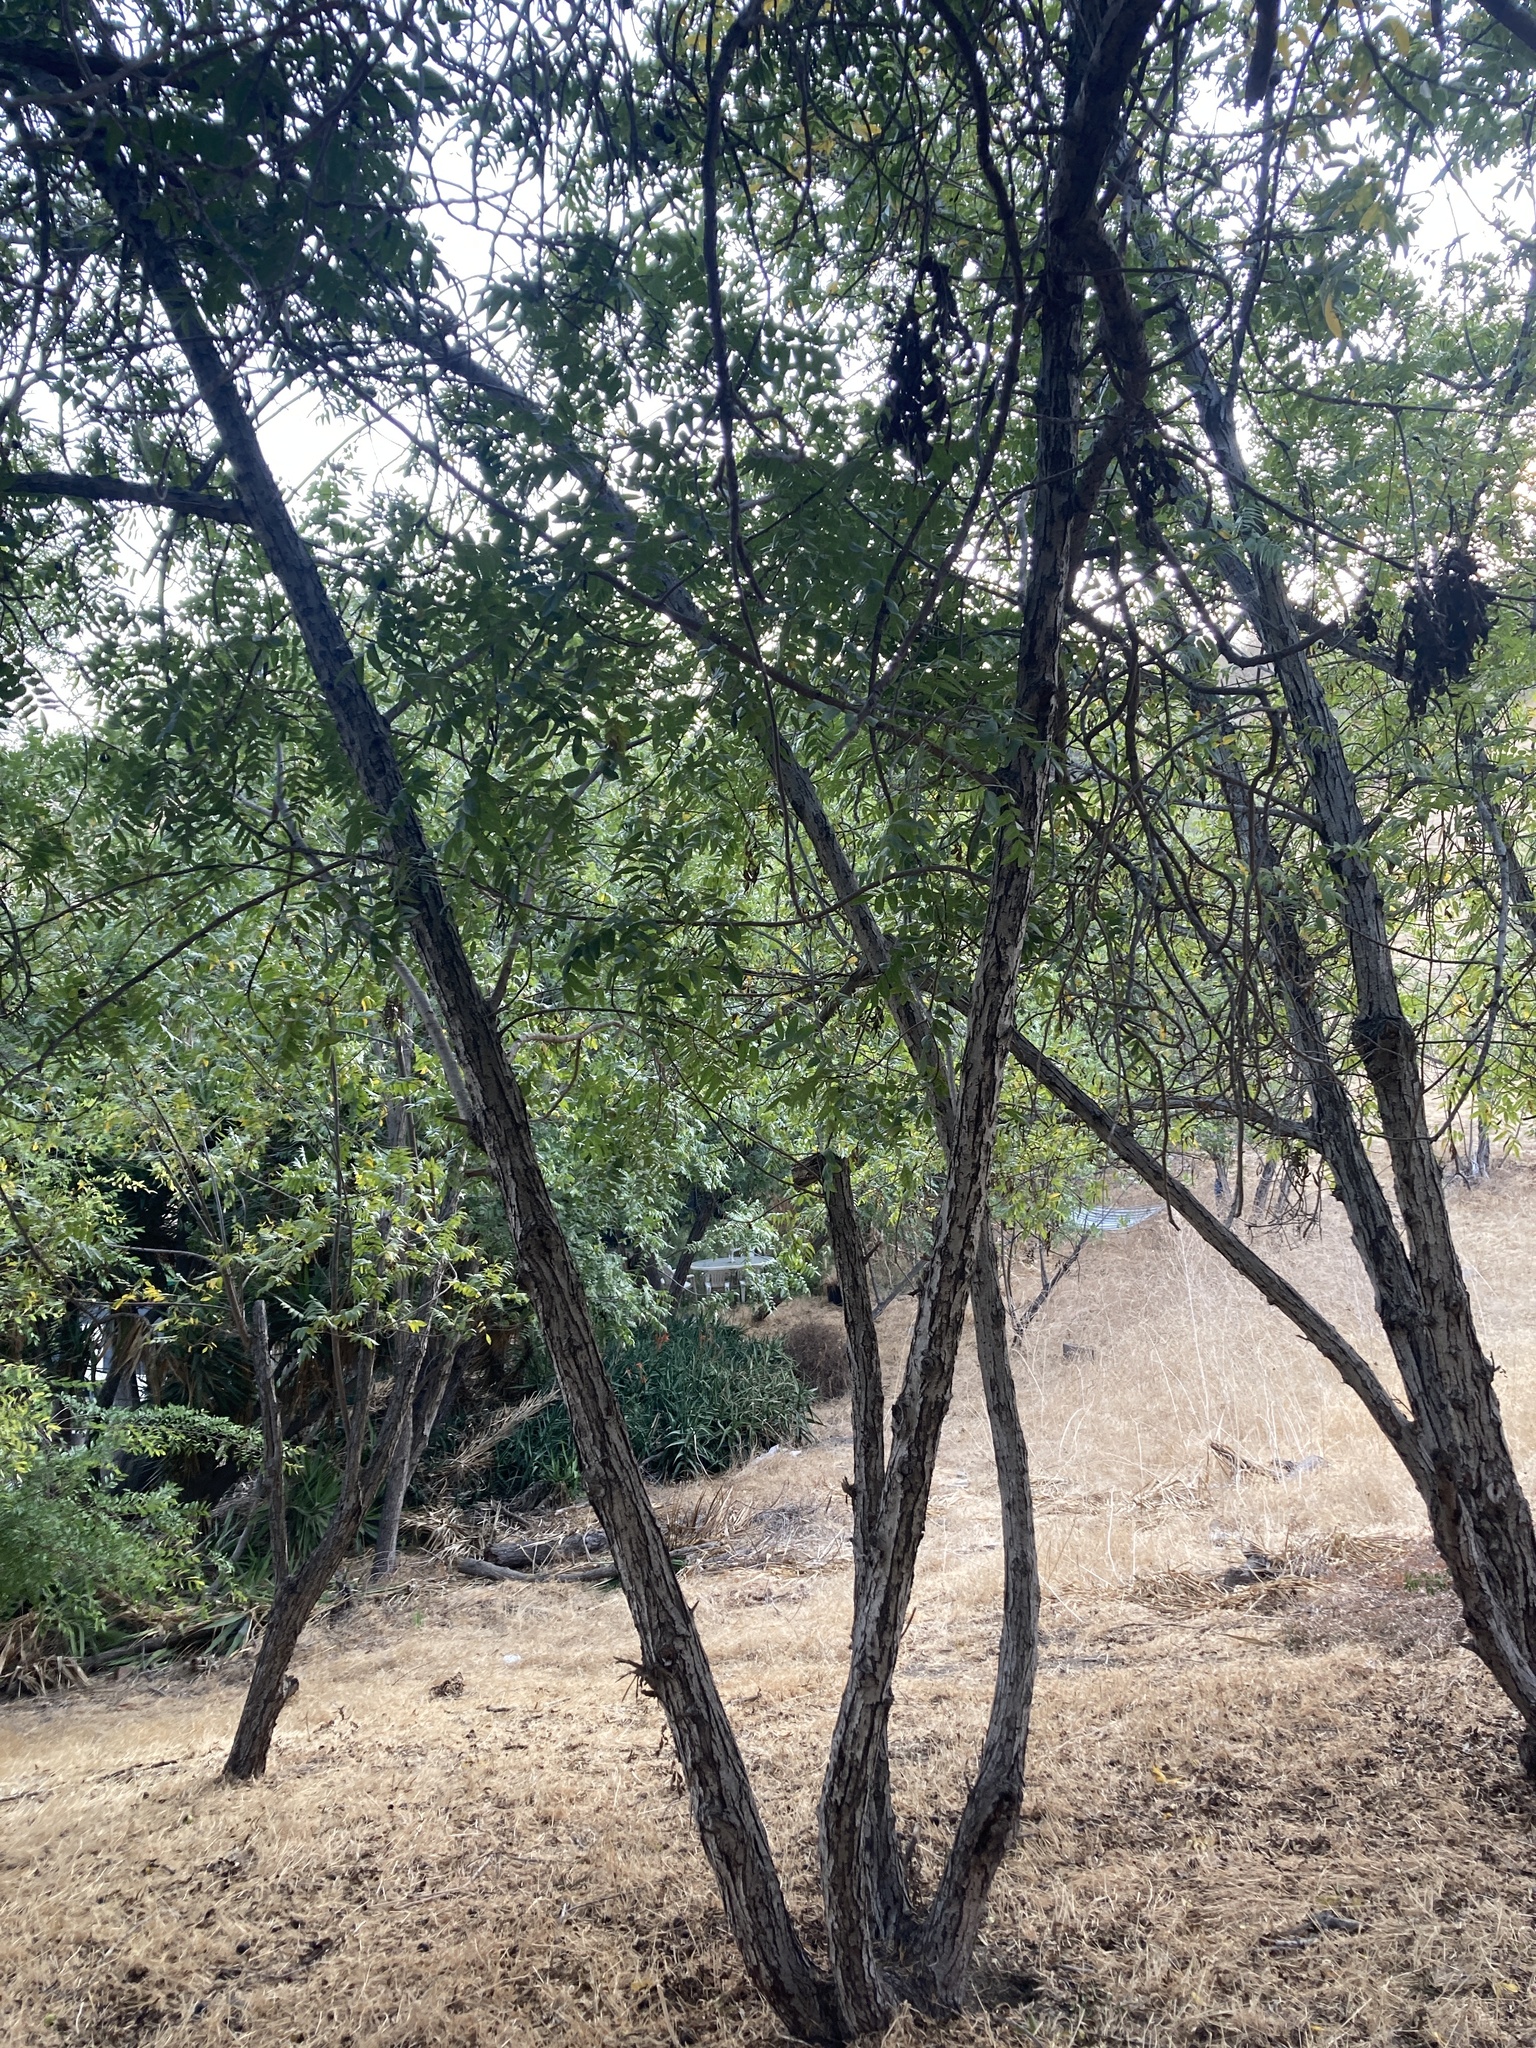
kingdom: Plantae
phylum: Tracheophyta
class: Magnoliopsida
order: Fagales
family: Juglandaceae
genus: Juglans
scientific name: Juglans californica
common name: Southern california black walnut
